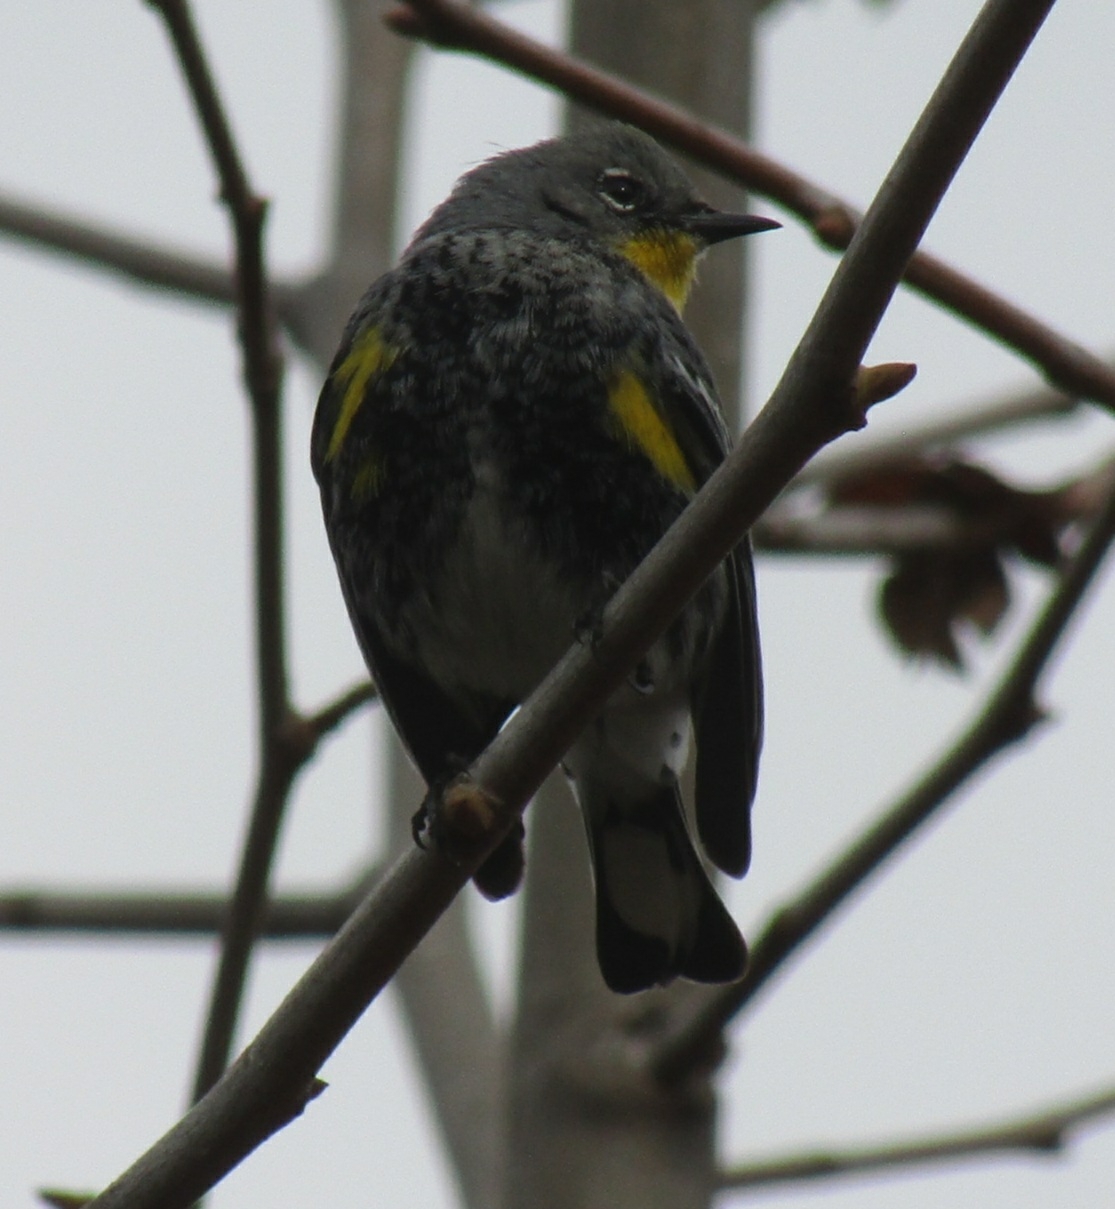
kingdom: Animalia
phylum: Chordata
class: Aves
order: Passeriformes
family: Parulidae
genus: Setophaga
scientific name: Setophaga coronata
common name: Myrtle warbler
